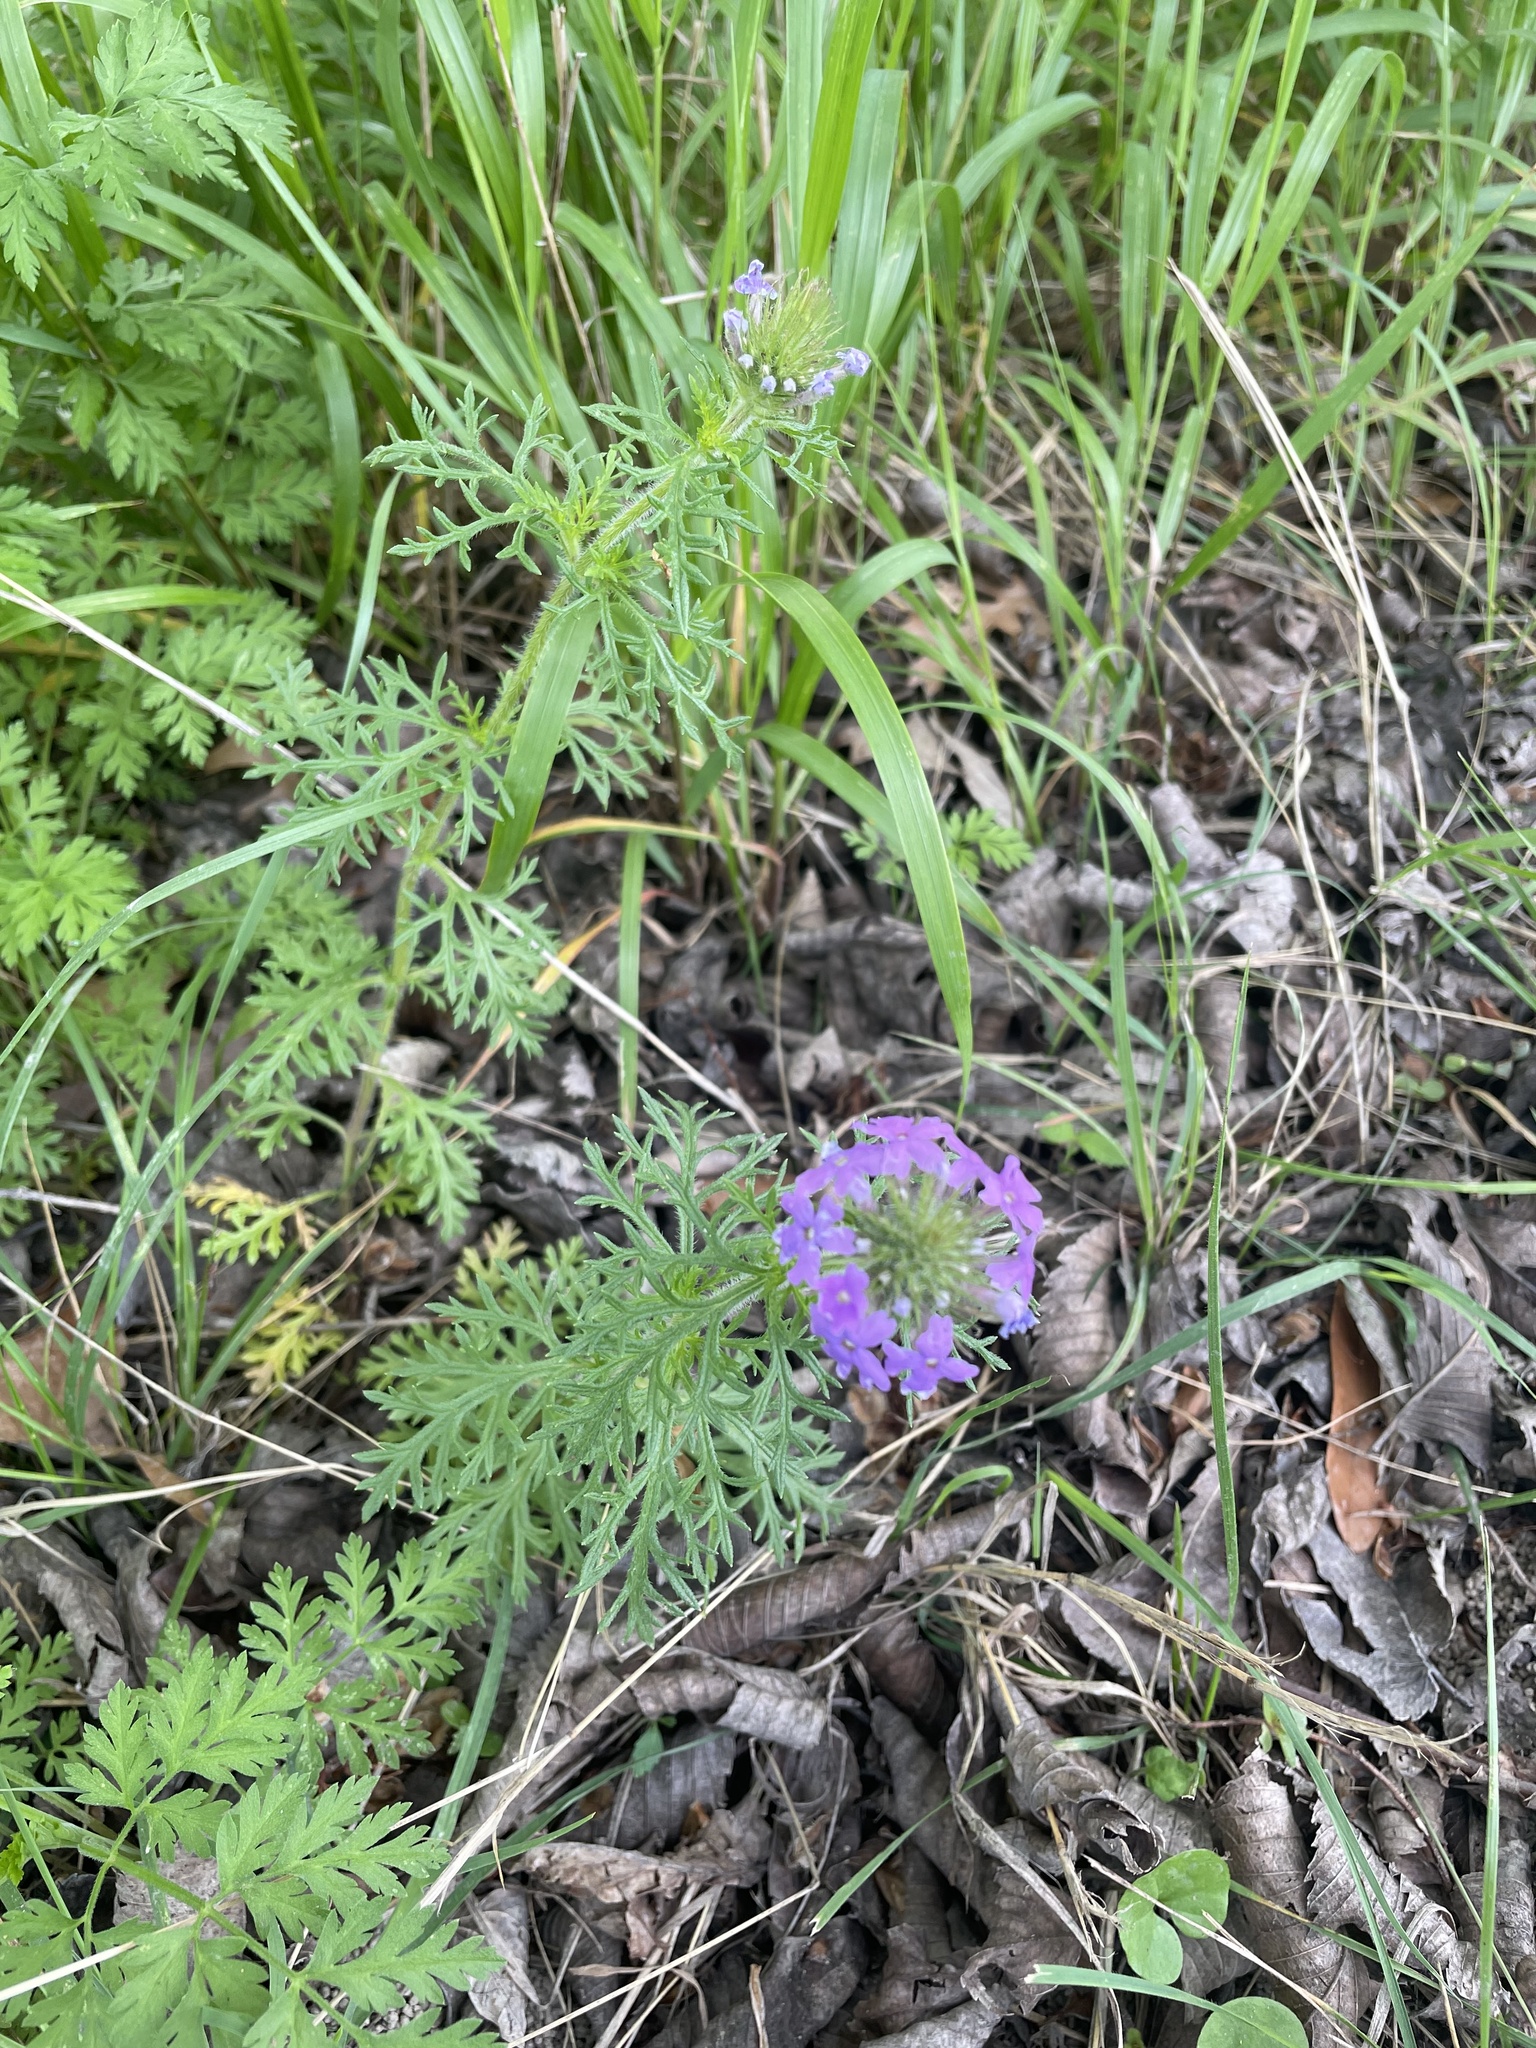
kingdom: Plantae
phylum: Tracheophyta
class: Magnoliopsida
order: Lamiales
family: Verbenaceae
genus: Verbena
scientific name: Verbena bipinnatifida
